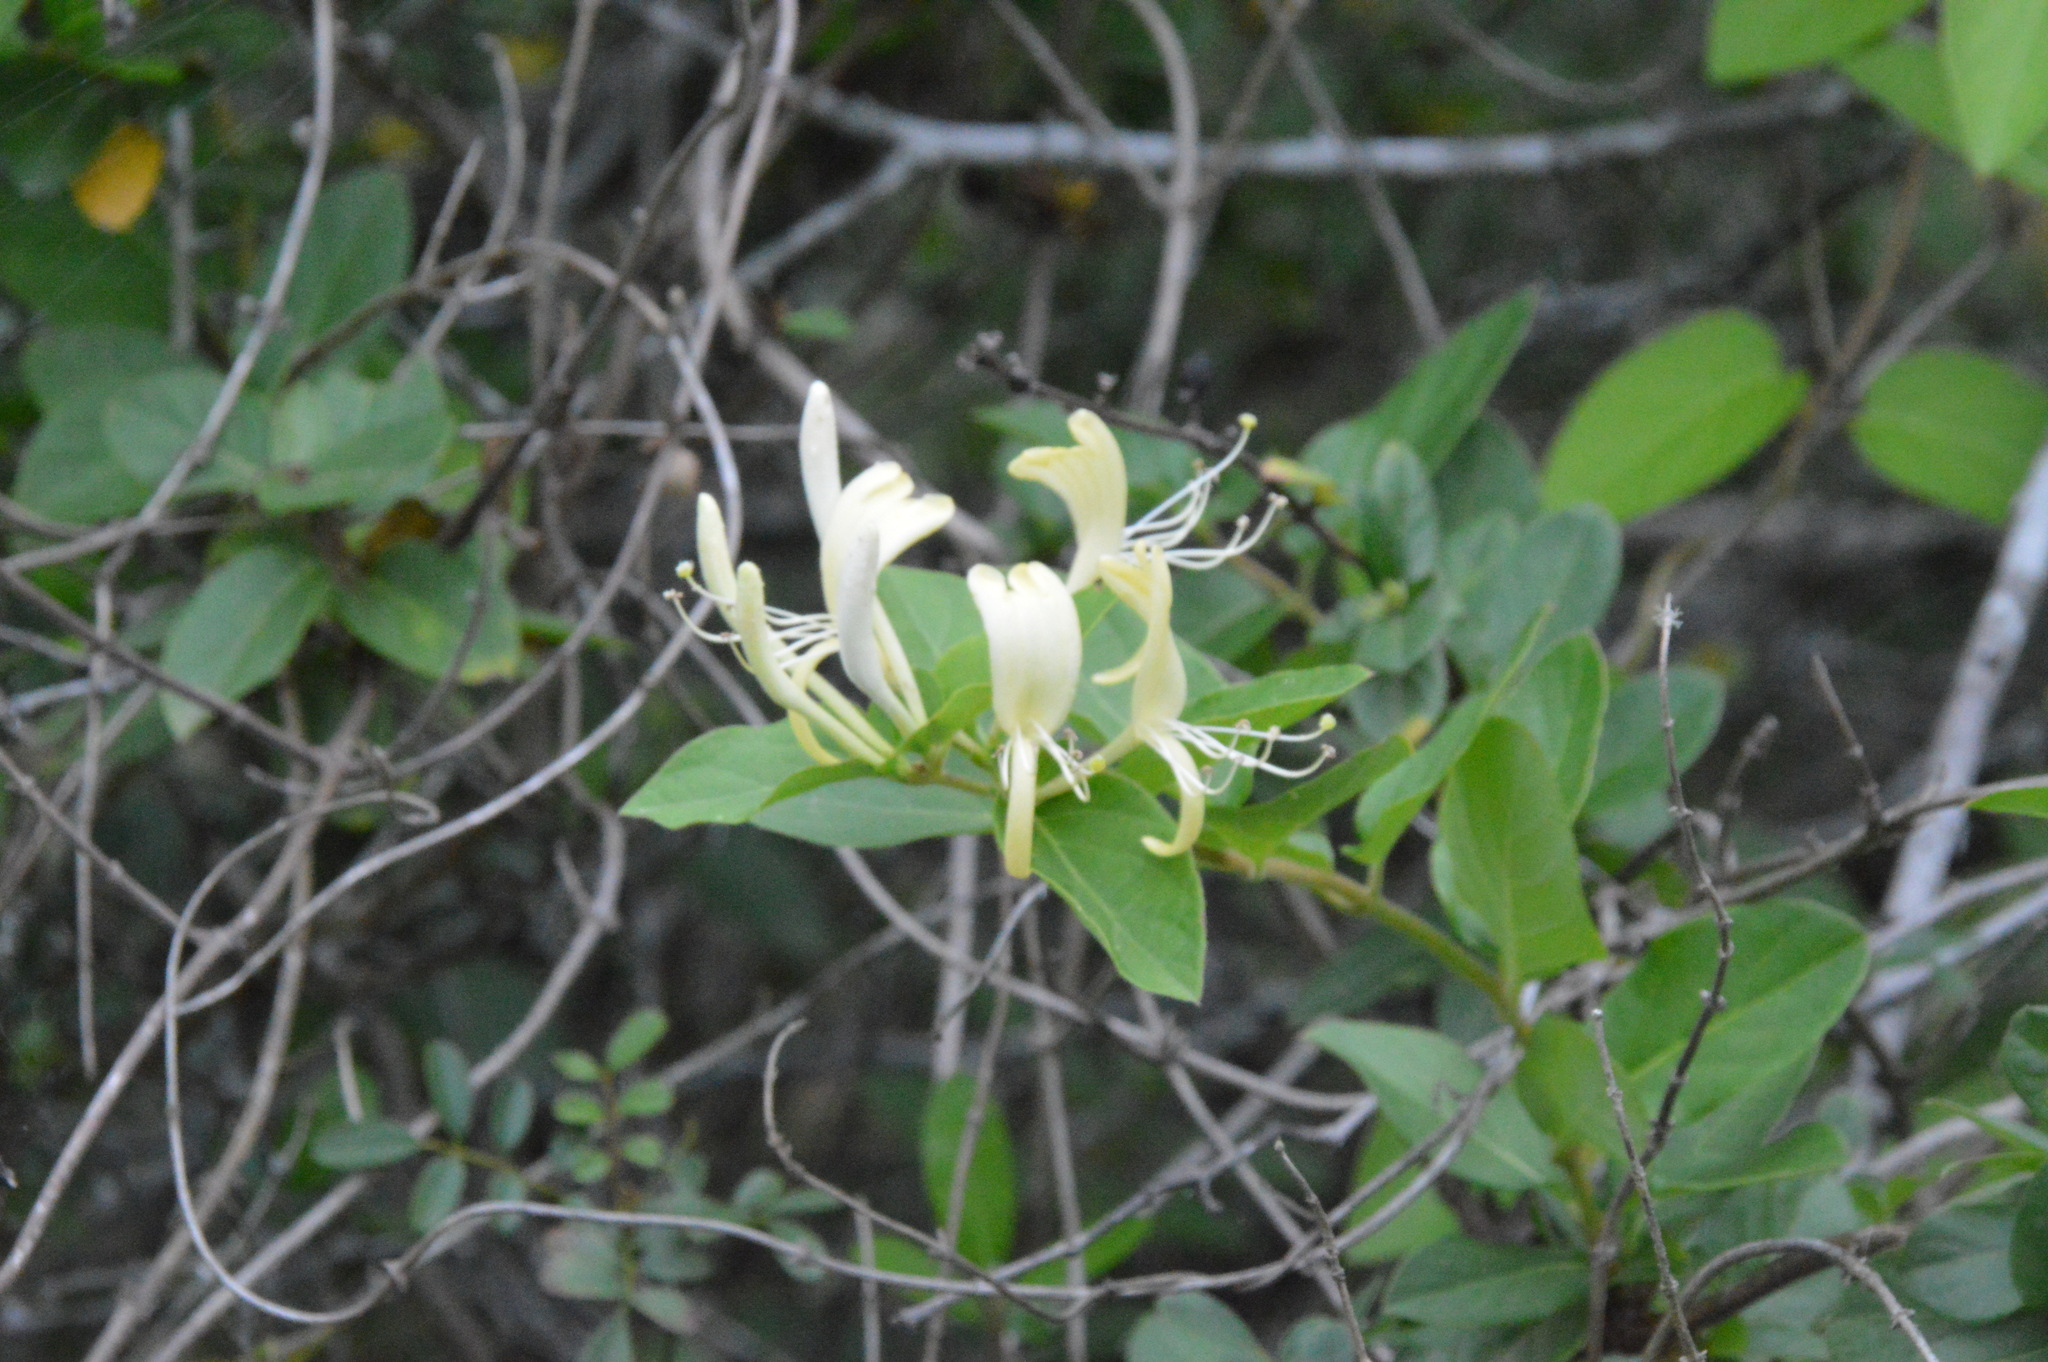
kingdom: Plantae
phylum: Tracheophyta
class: Magnoliopsida
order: Dipsacales
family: Caprifoliaceae
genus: Lonicera
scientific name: Lonicera japonica
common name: Japanese honeysuckle
